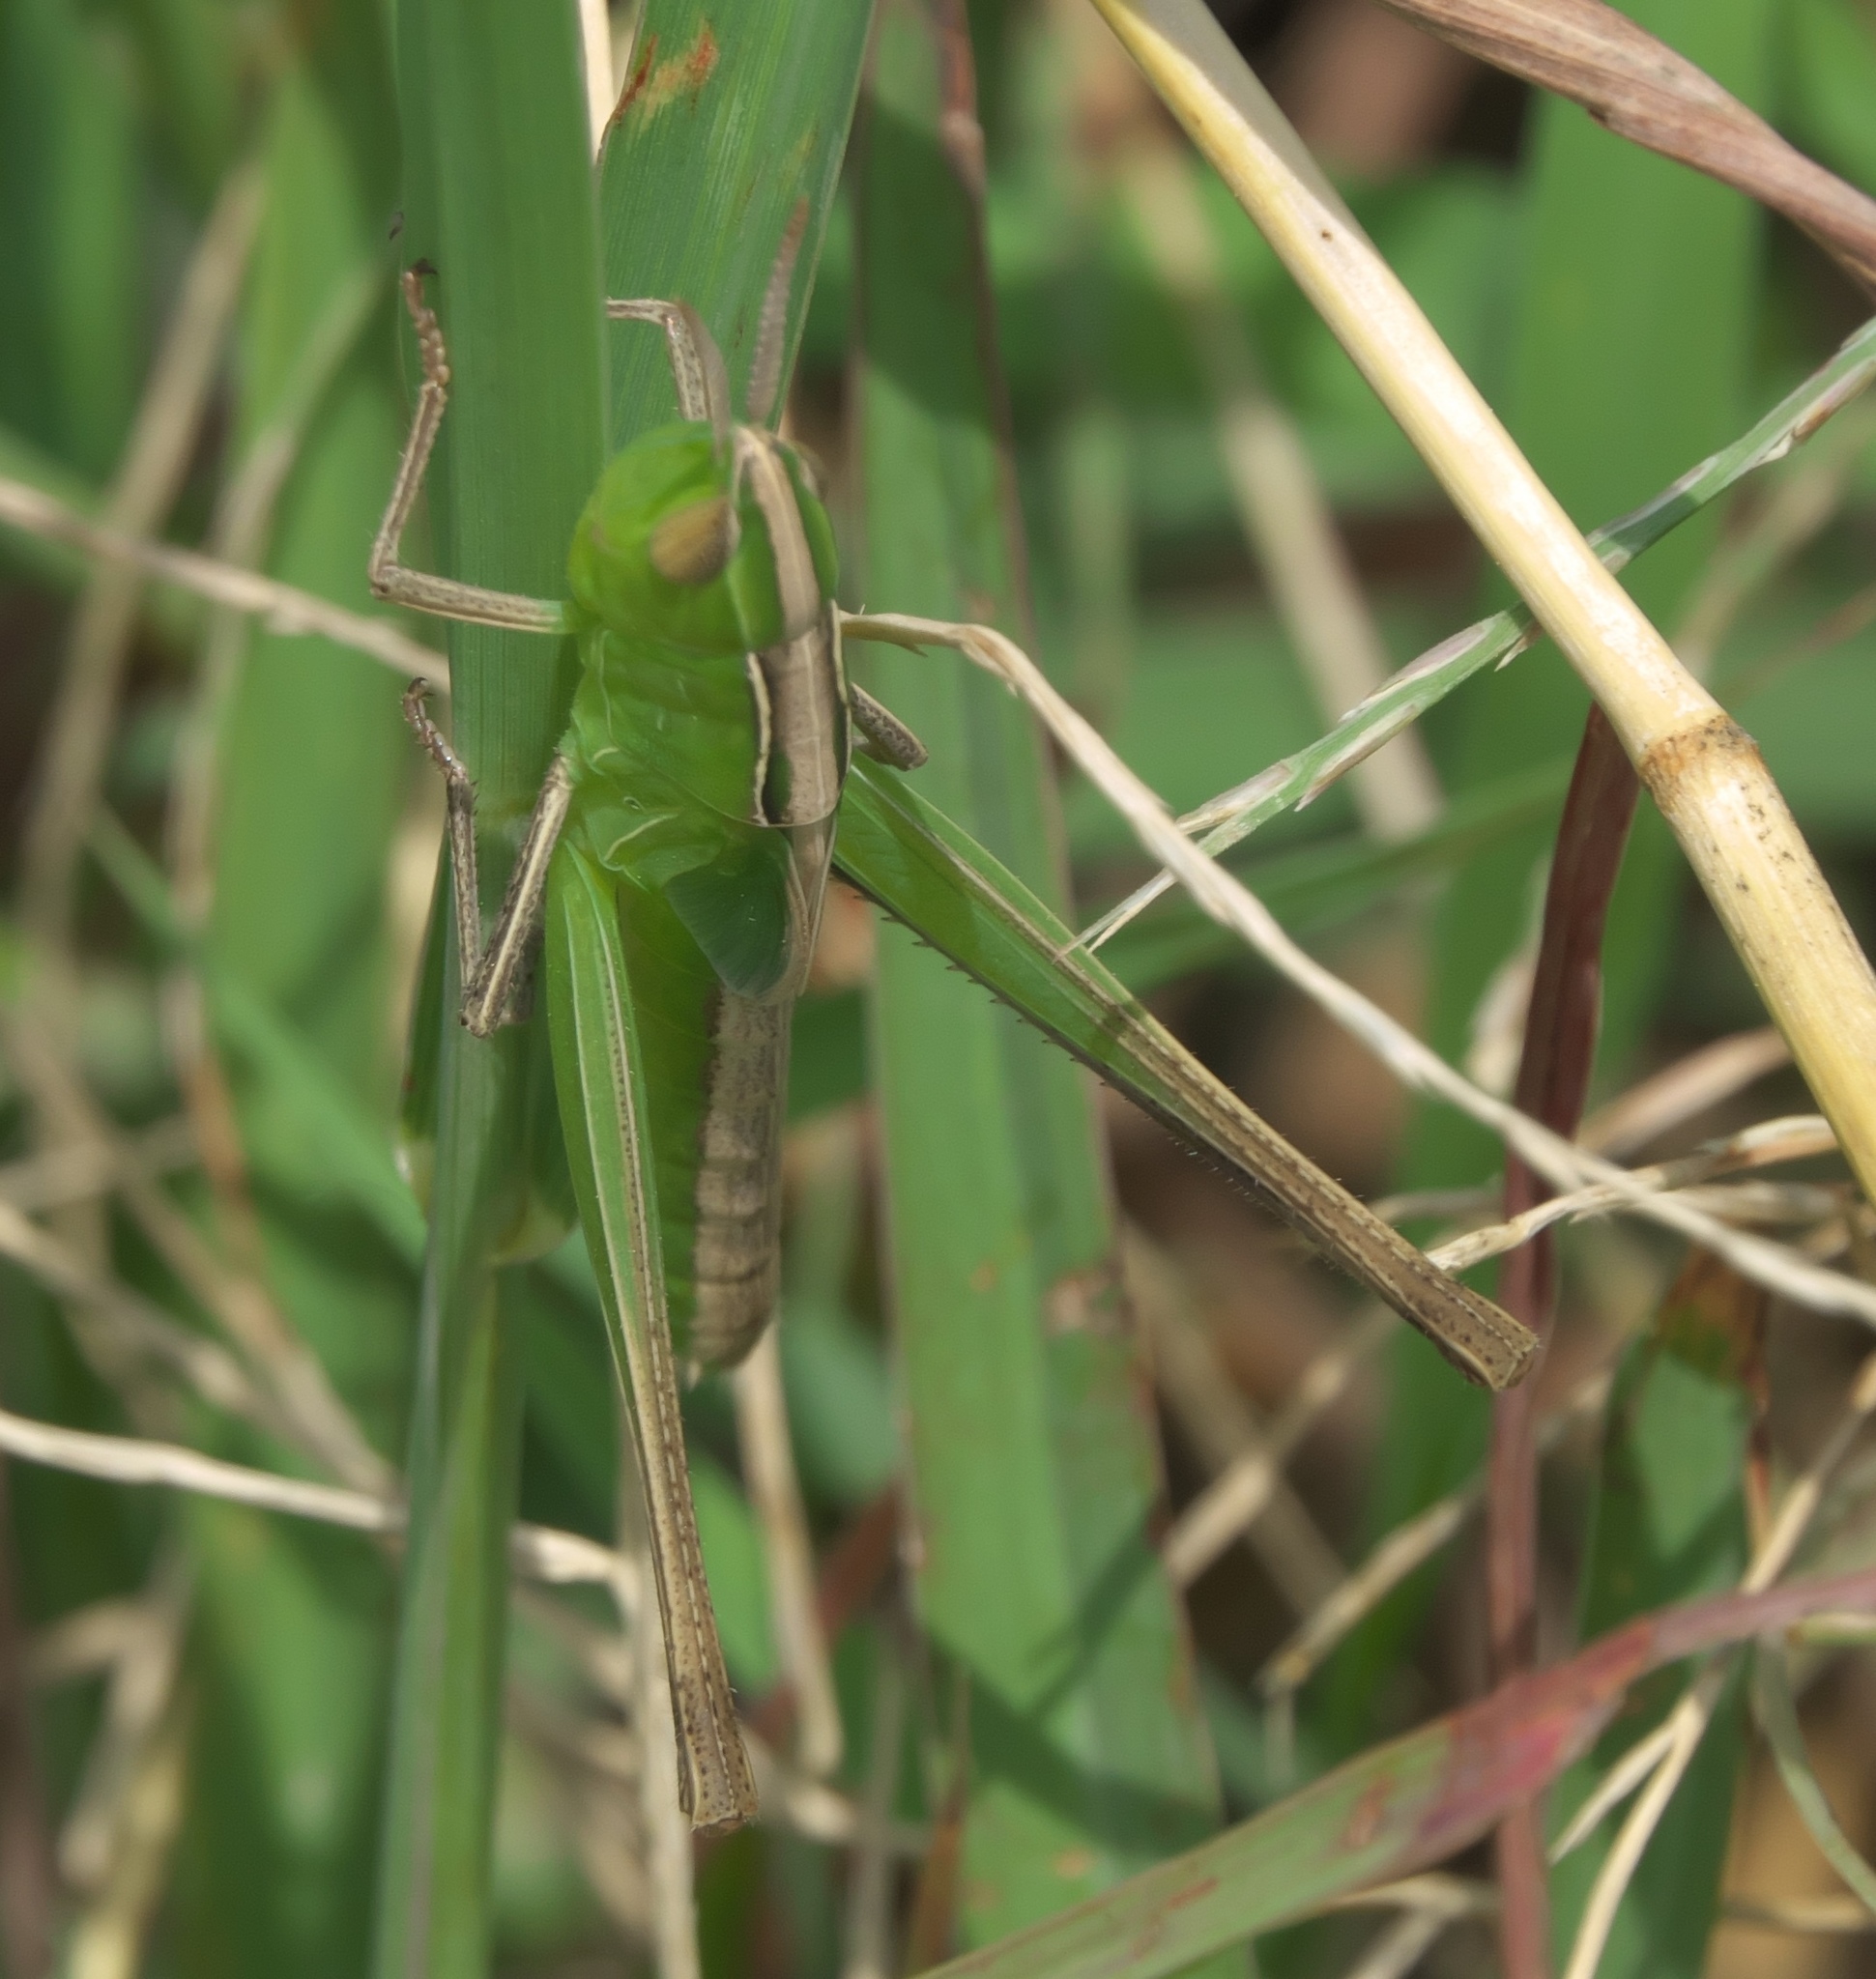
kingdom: Animalia
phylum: Arthropoda
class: Insecta
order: Orthoptera
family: Acrididae
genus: Syrbula
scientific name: Syrbula admirabilis
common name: Handsome grasshopper
